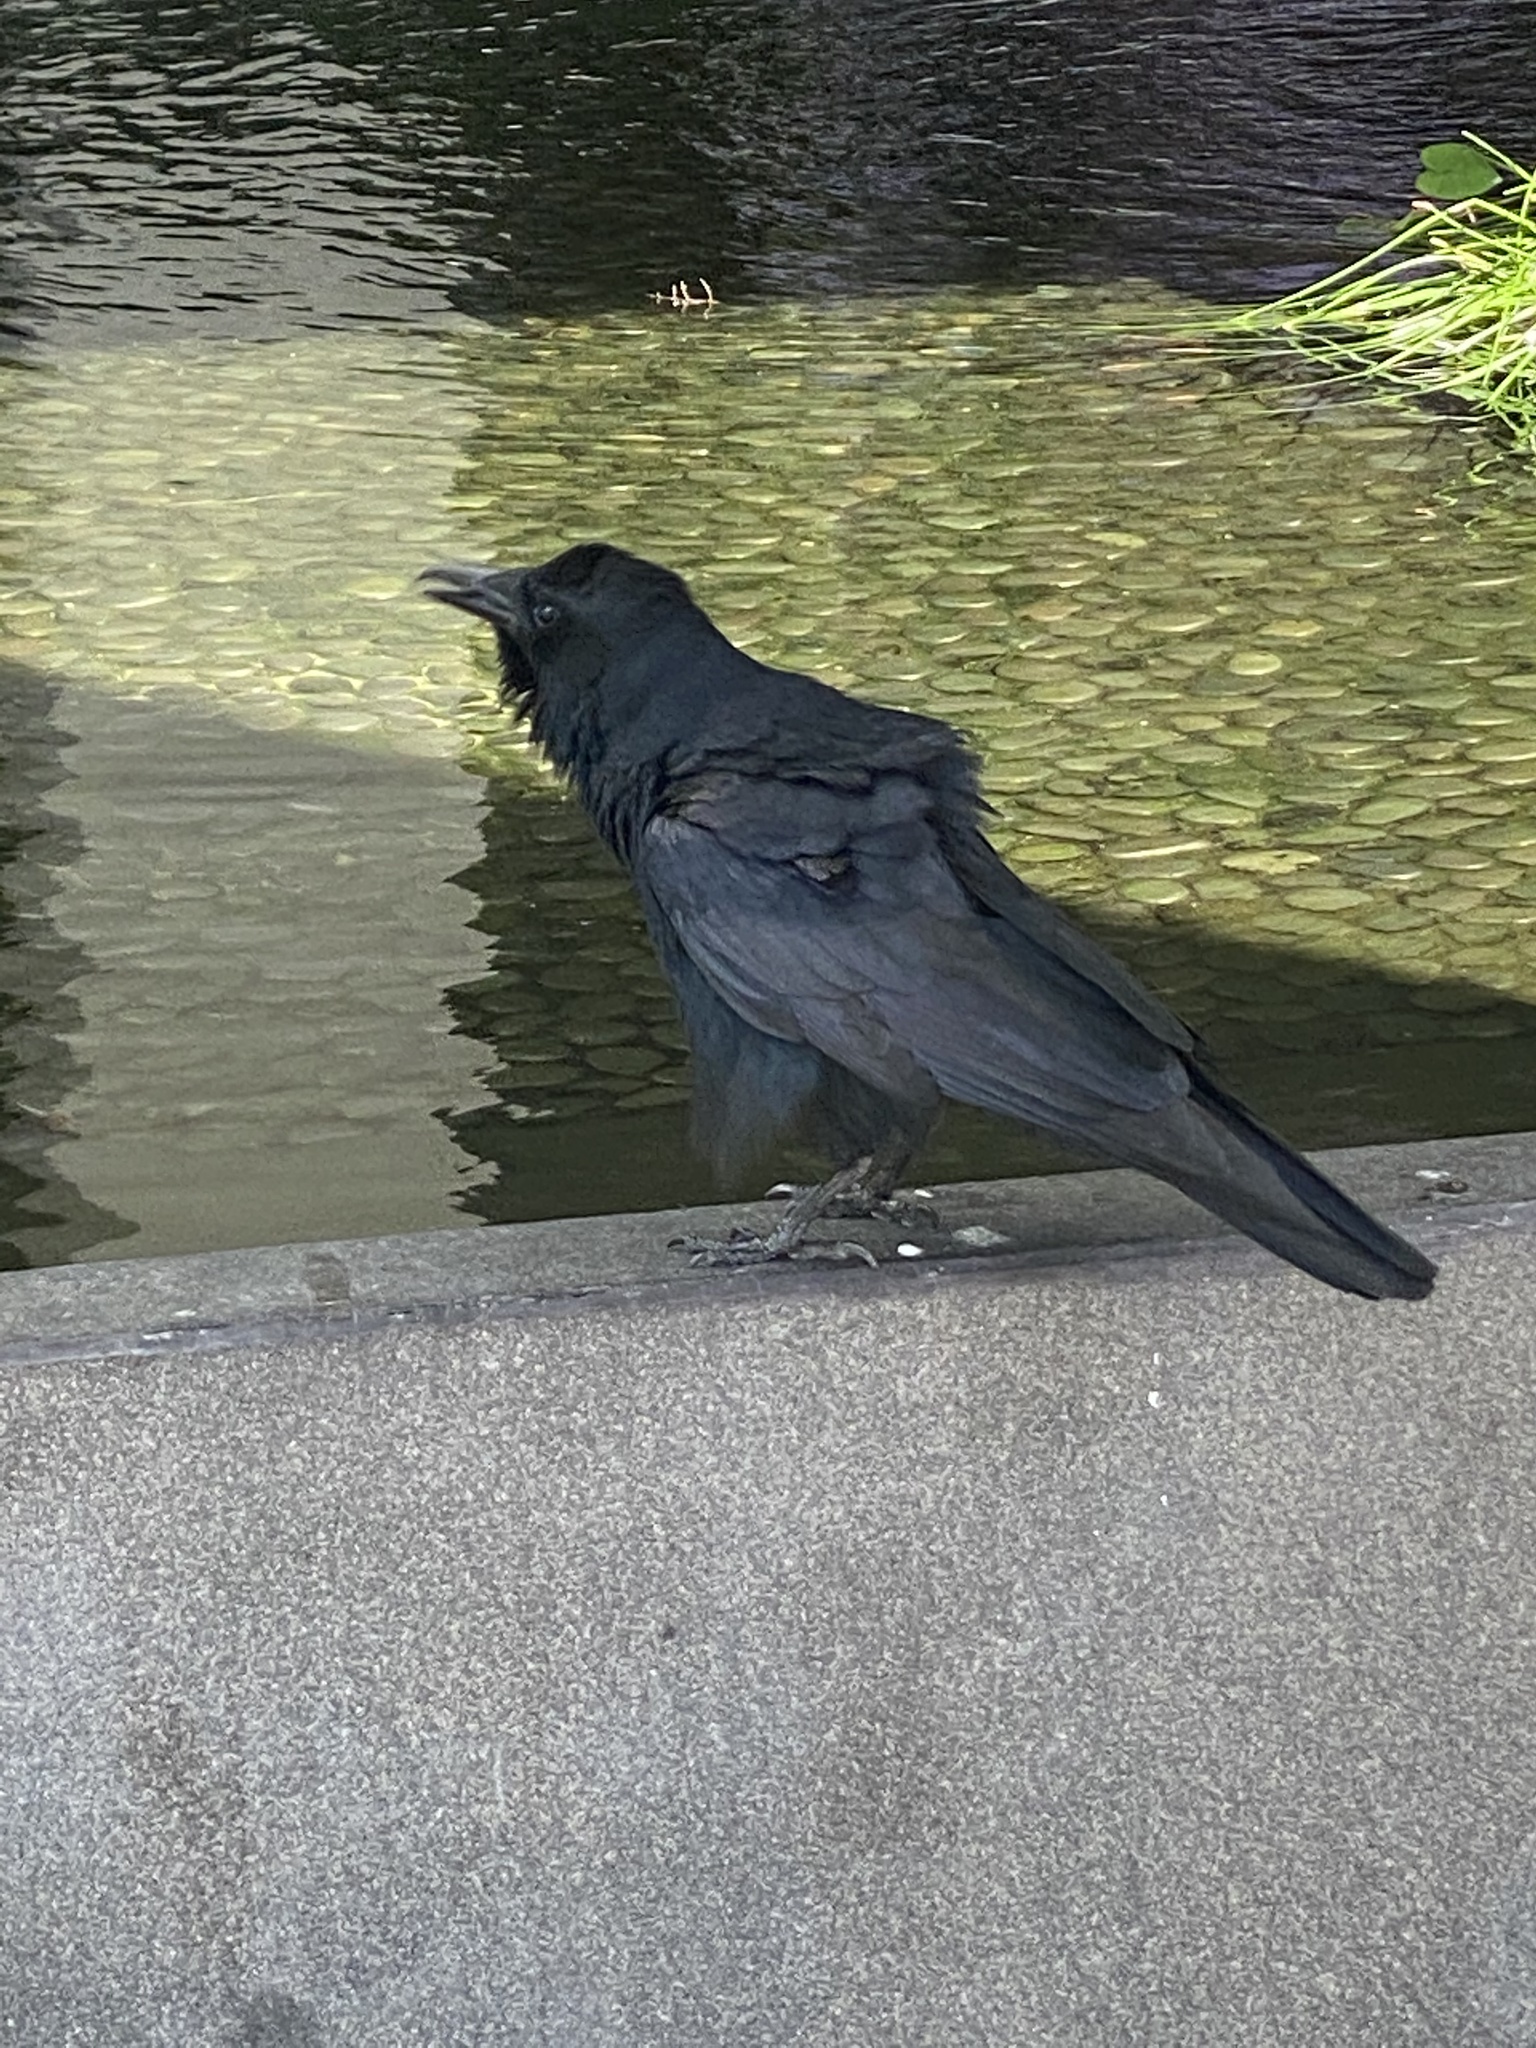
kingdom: Animalia
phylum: Chordata
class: Aves
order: Passeriformes
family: Corvidae
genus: Corvus
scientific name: Corvus ossifragus
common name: Fish crow
